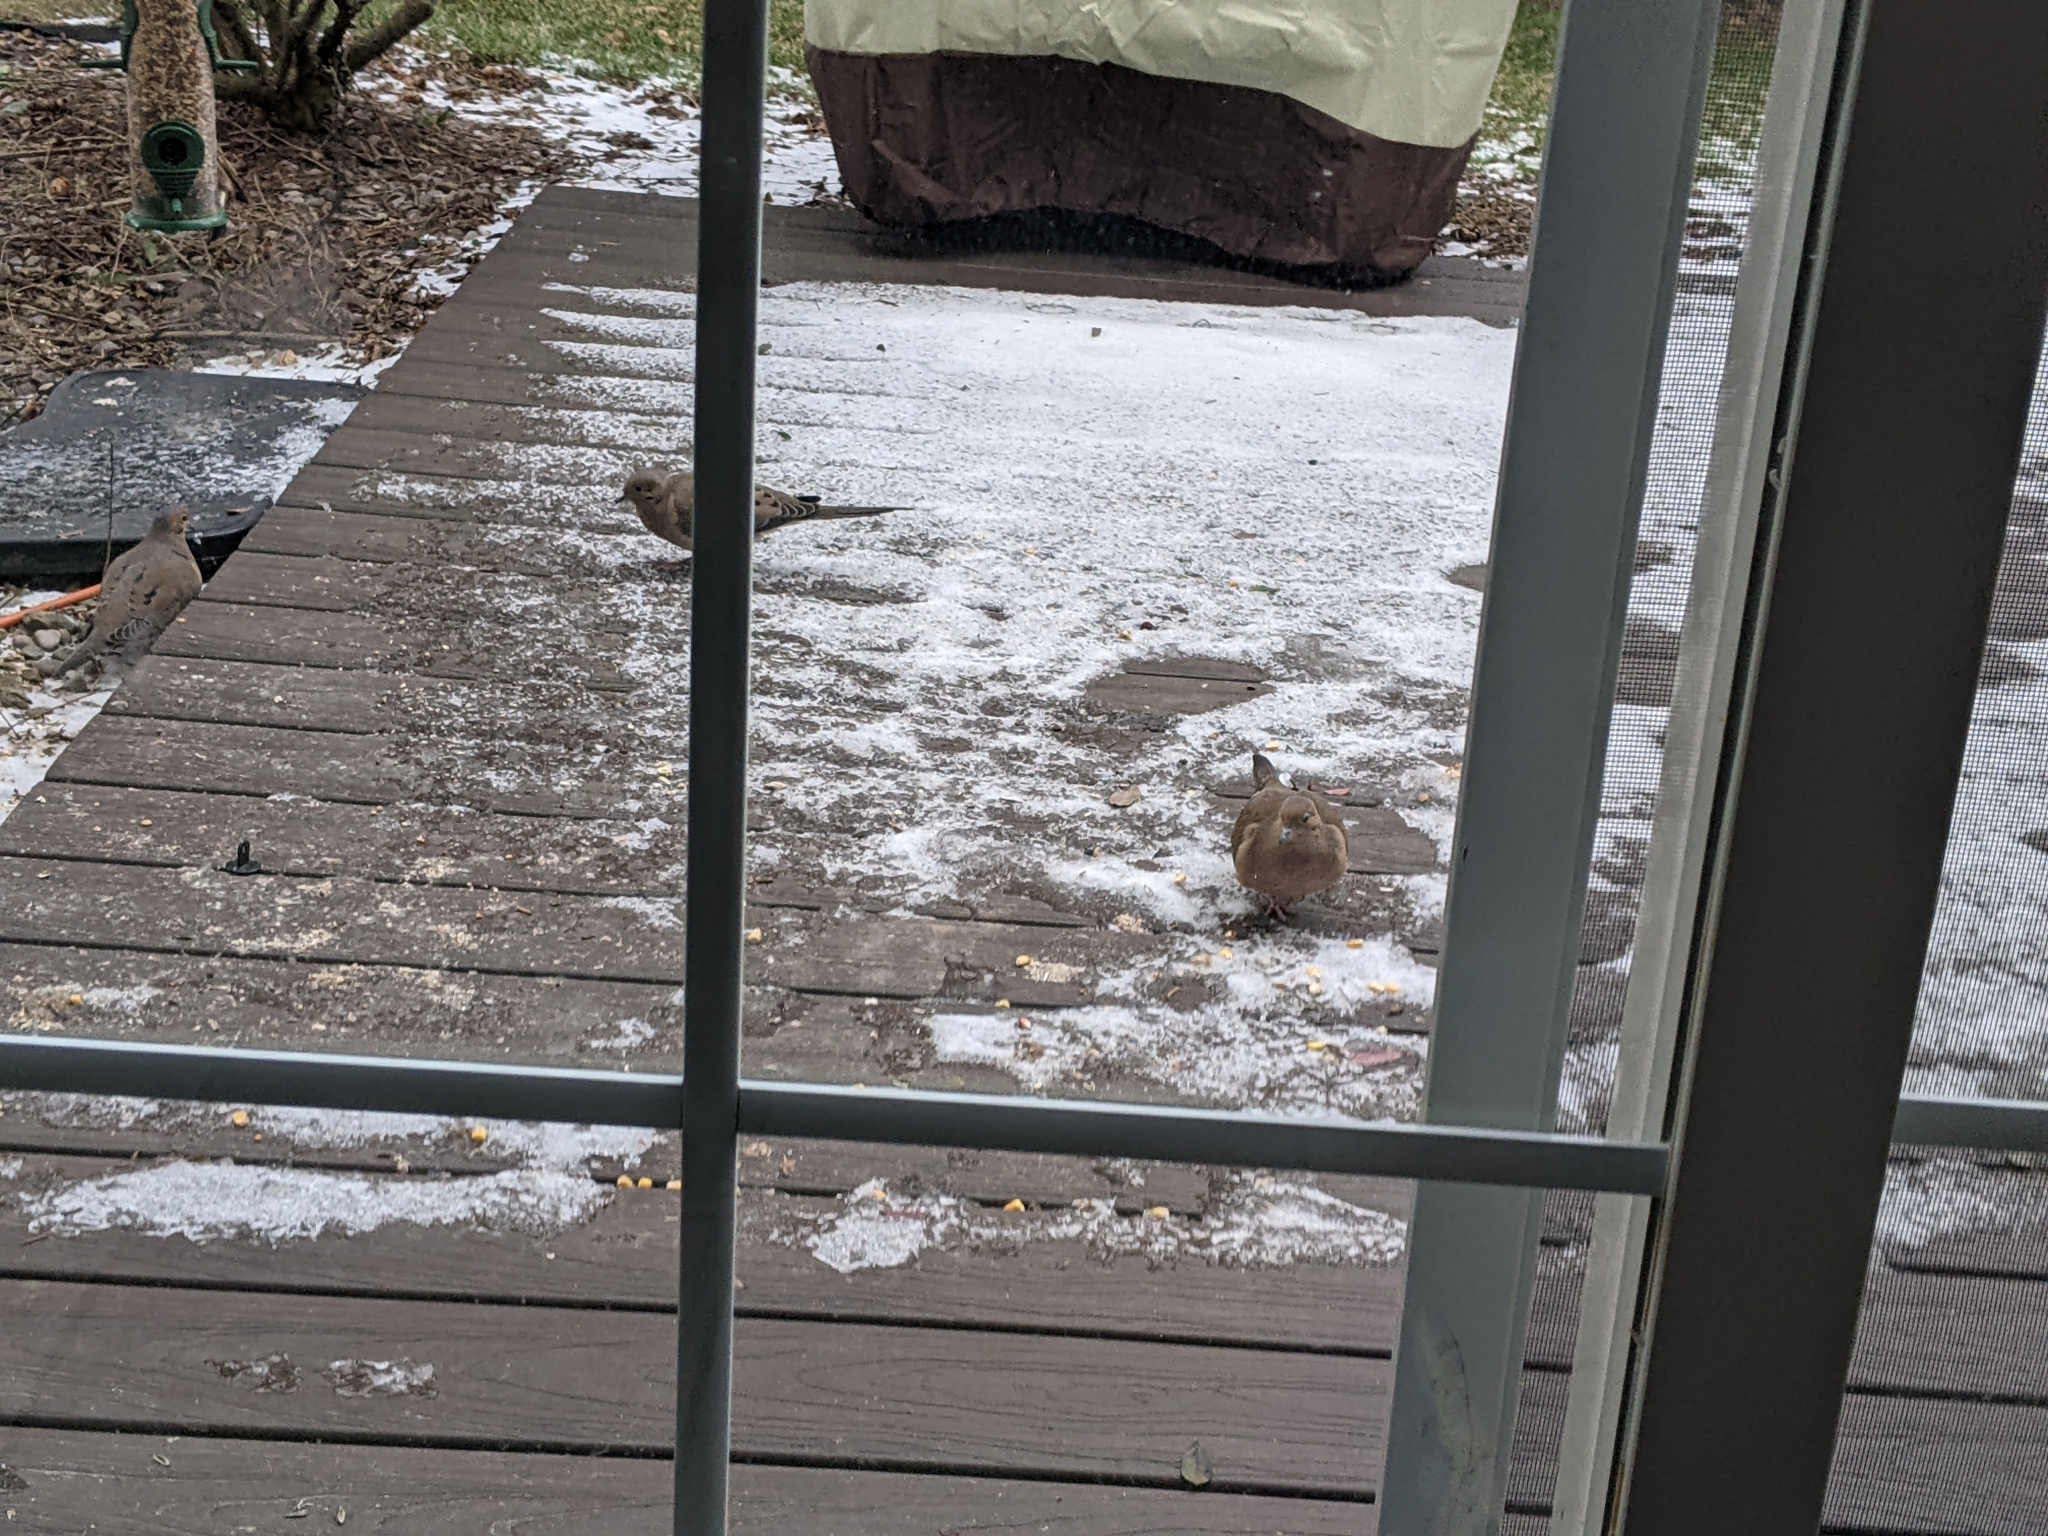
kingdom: Animalia
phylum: Chordata
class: Aves
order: Columbiformes
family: Columbidae
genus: Zenaida
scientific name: Zenaida macroura
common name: Mourning dove
